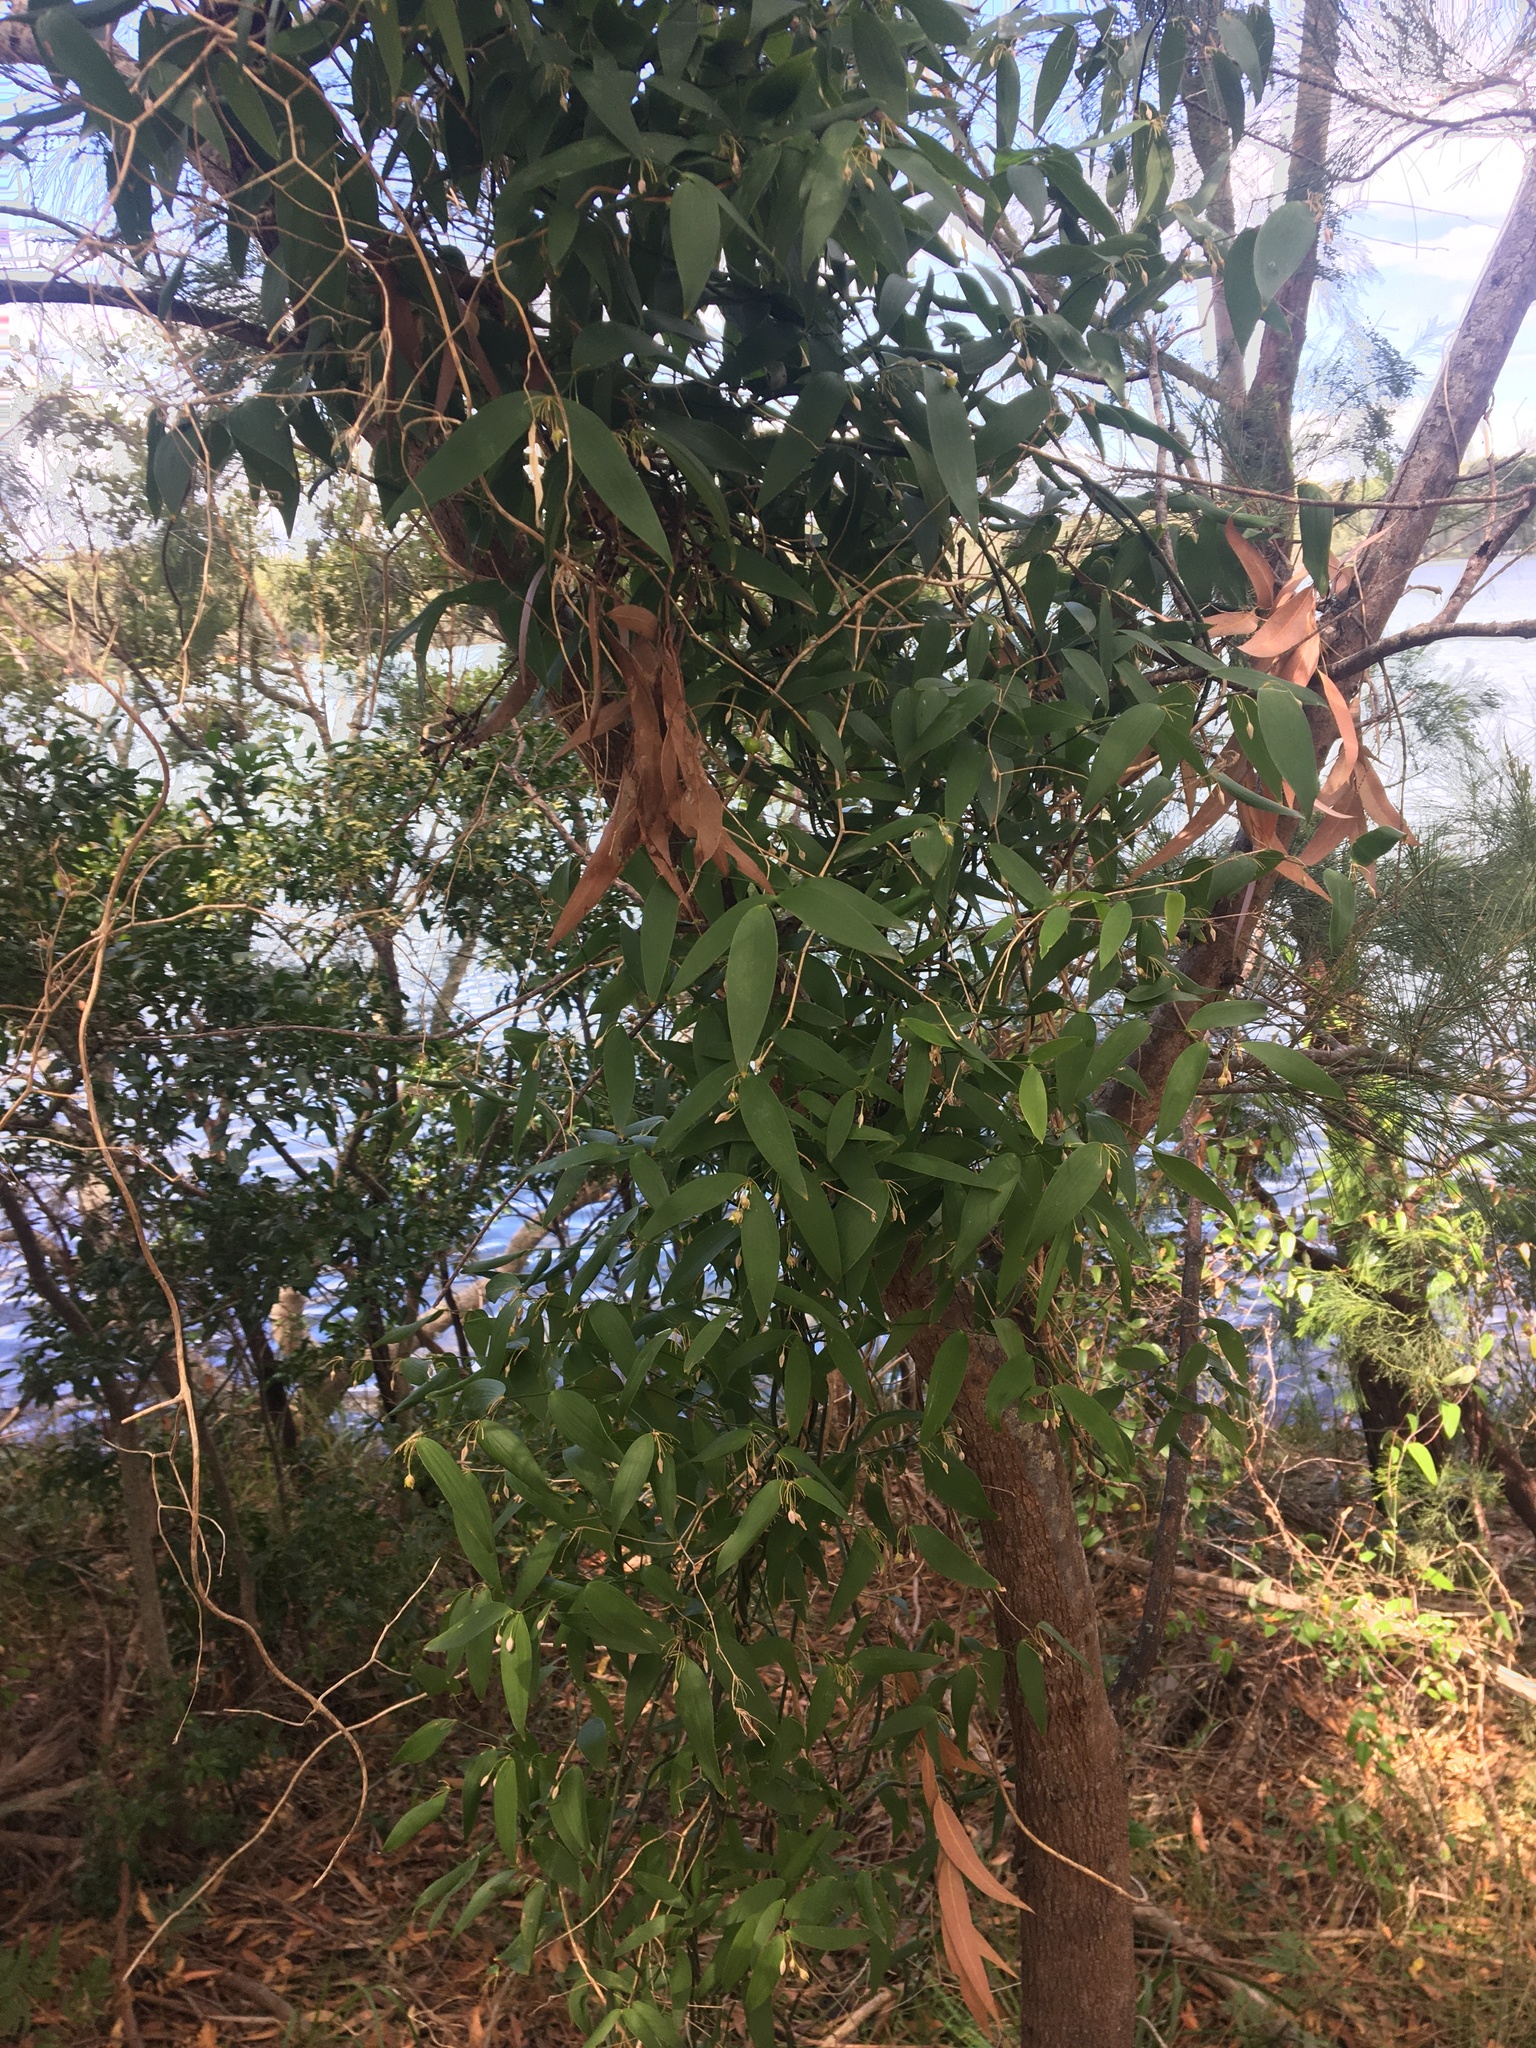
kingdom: Plantae
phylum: Tracheophyta
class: Liliopsida
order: Asparagales
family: Asparagaceae
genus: Eustrephus
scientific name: Eustrephus latifolius
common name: Orangevine
